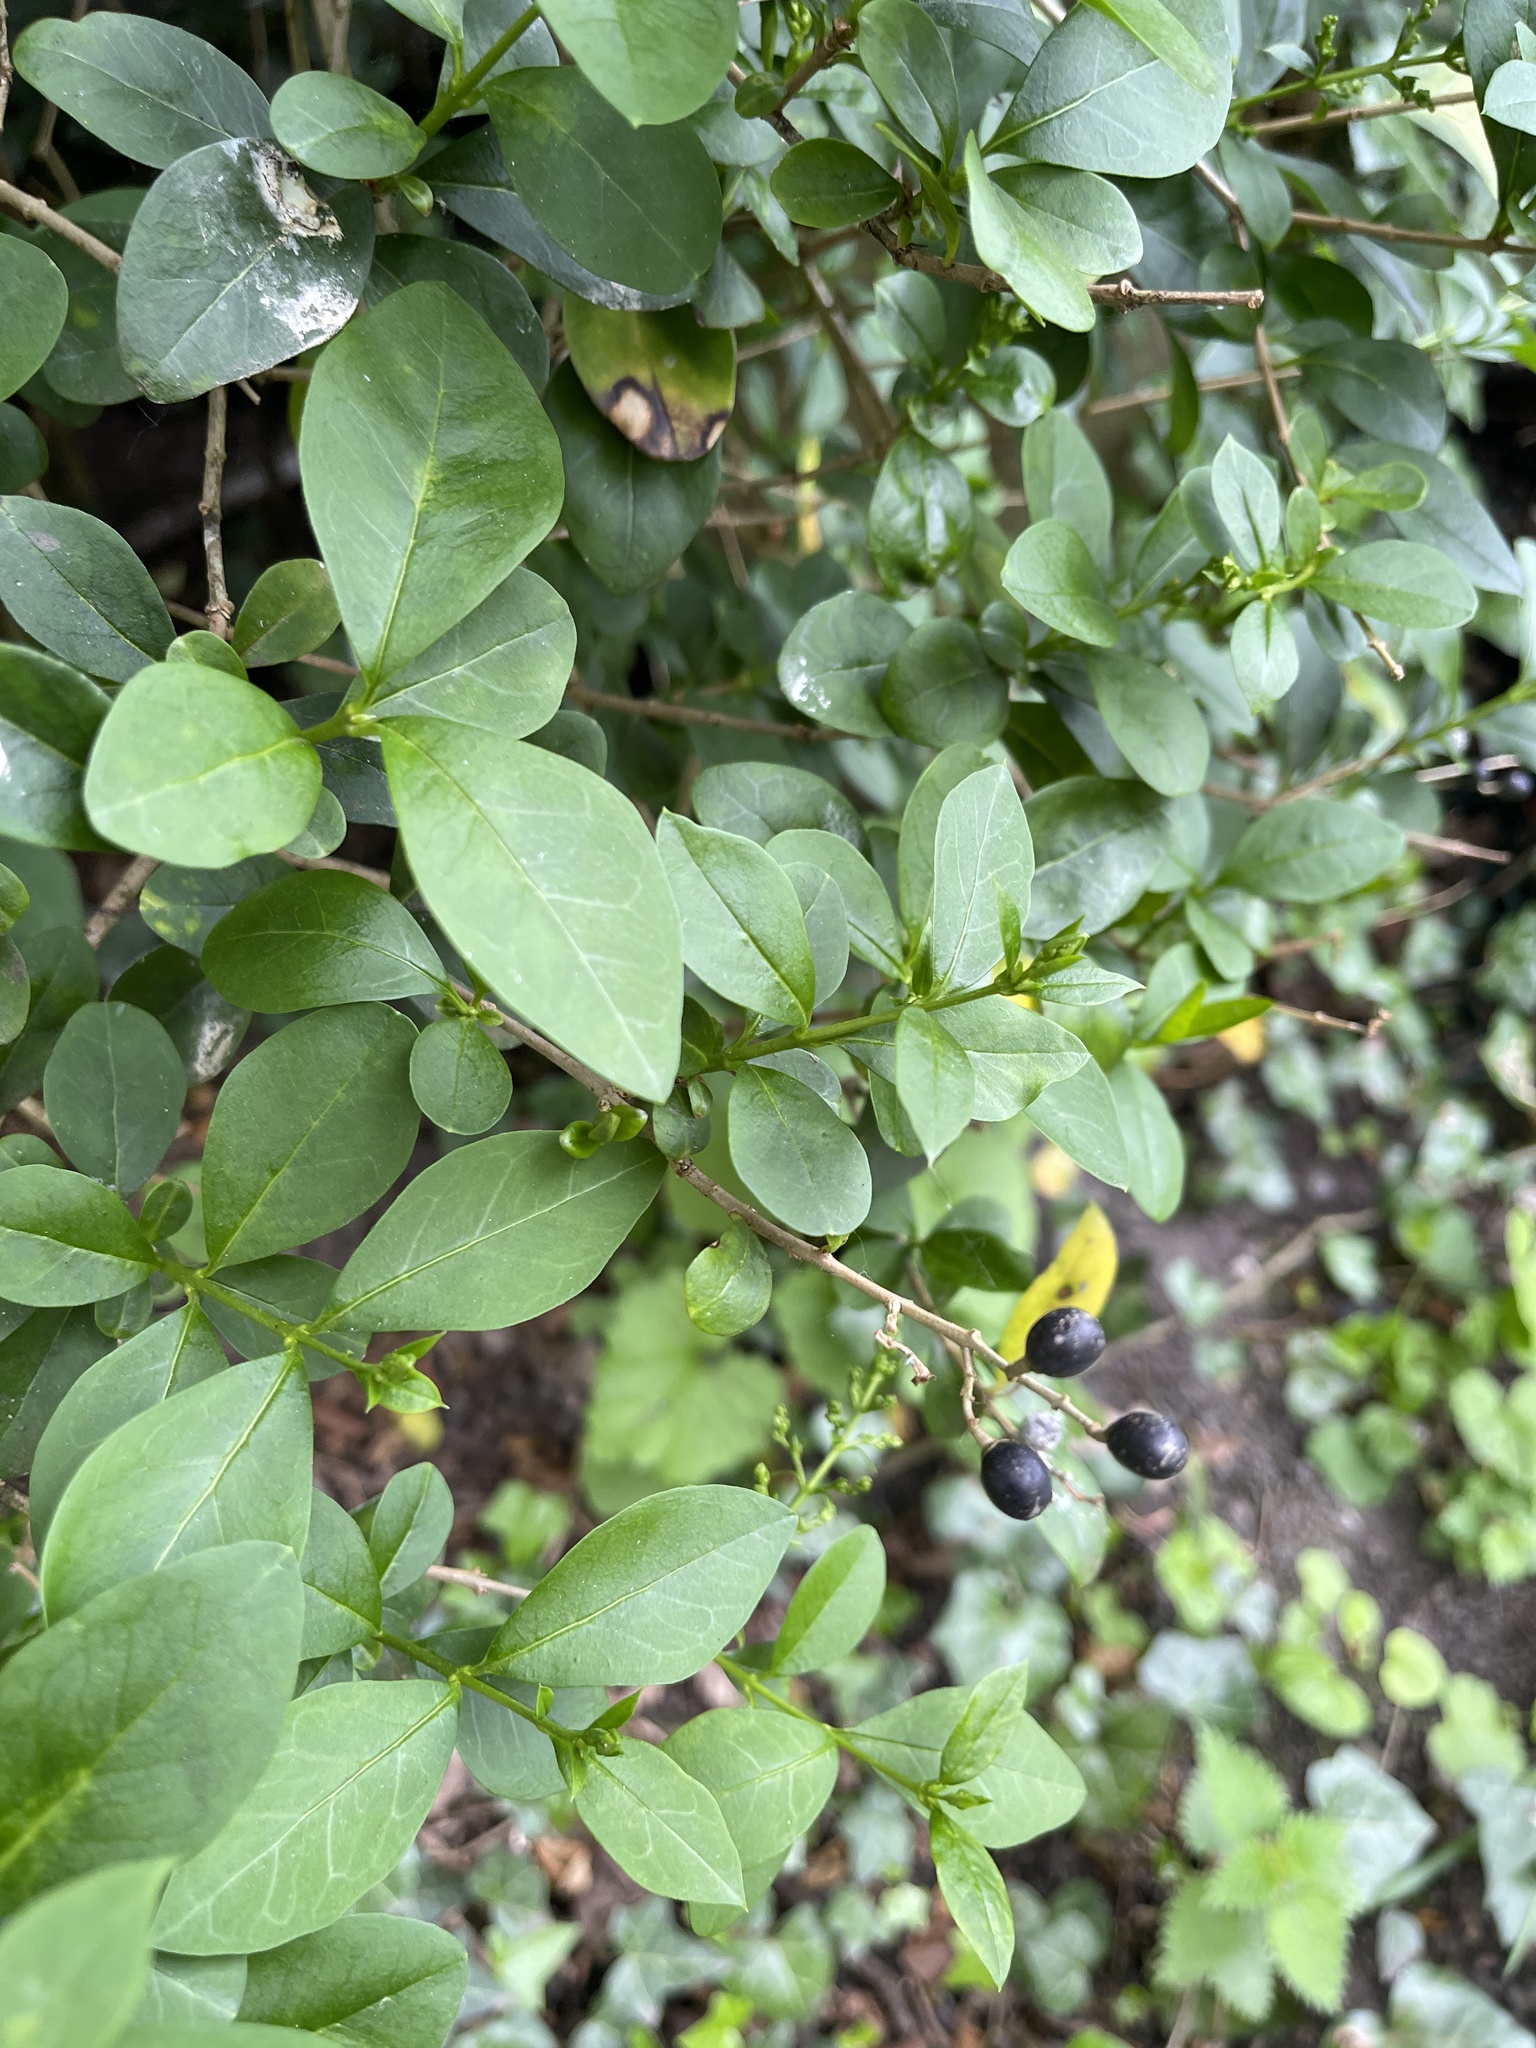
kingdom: Plantae
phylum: Tracheophyta
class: Magnoliopsida
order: Lamiales
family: Oleaceae
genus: Ligustrum
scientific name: Ligustrum ovalifolium
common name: California privet
